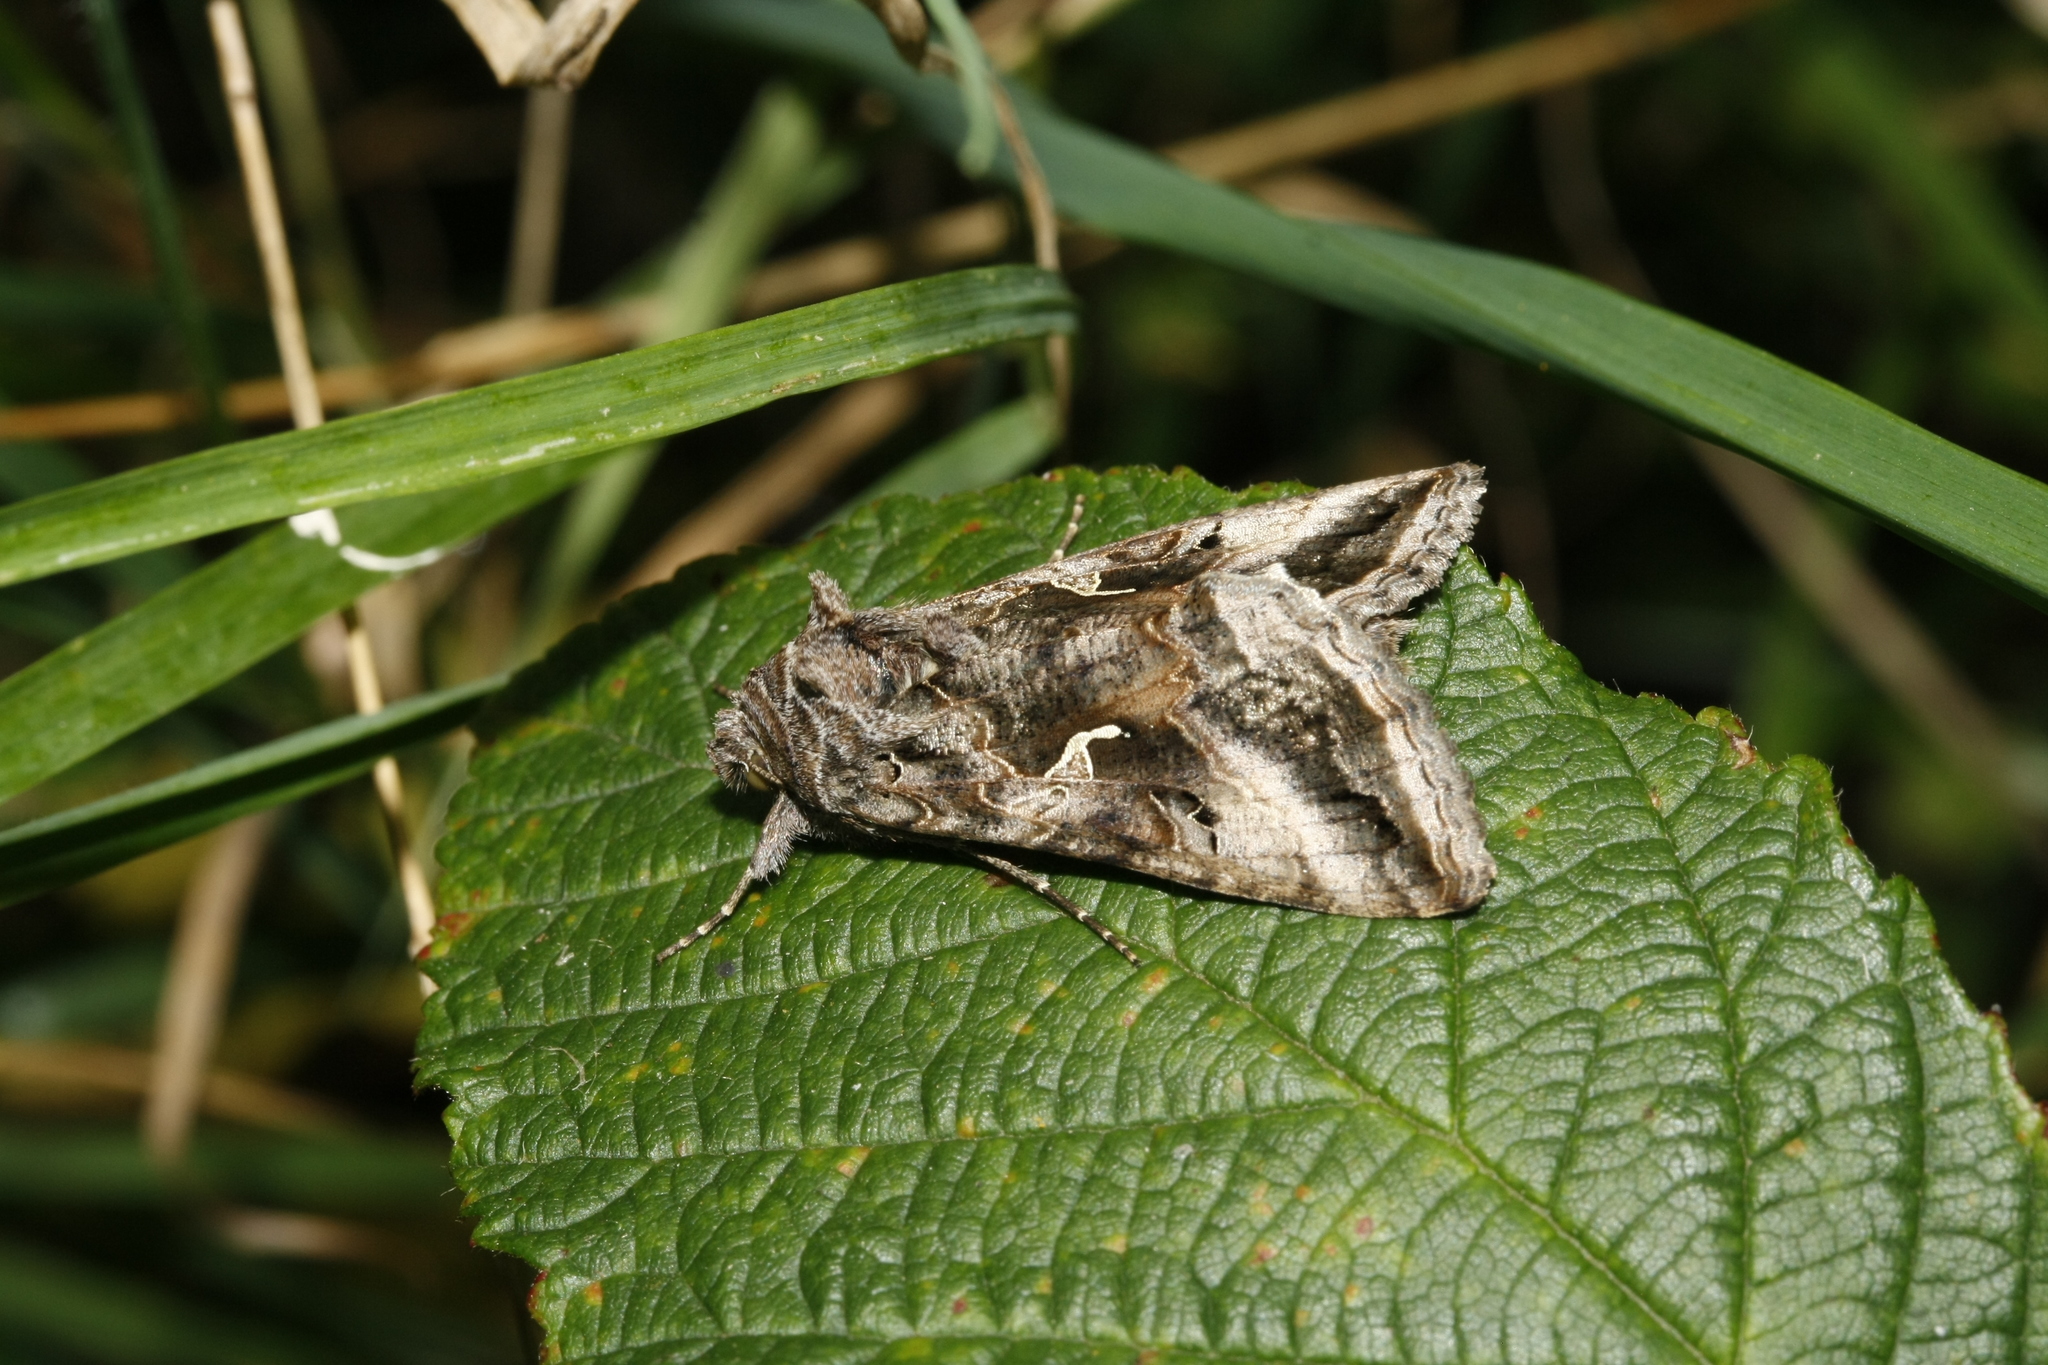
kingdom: Animalia
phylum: Arthropoda
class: Insecta
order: Lepidoptera
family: Noctuidae
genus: Autographa
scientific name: Autographa gamma
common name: Silver y
